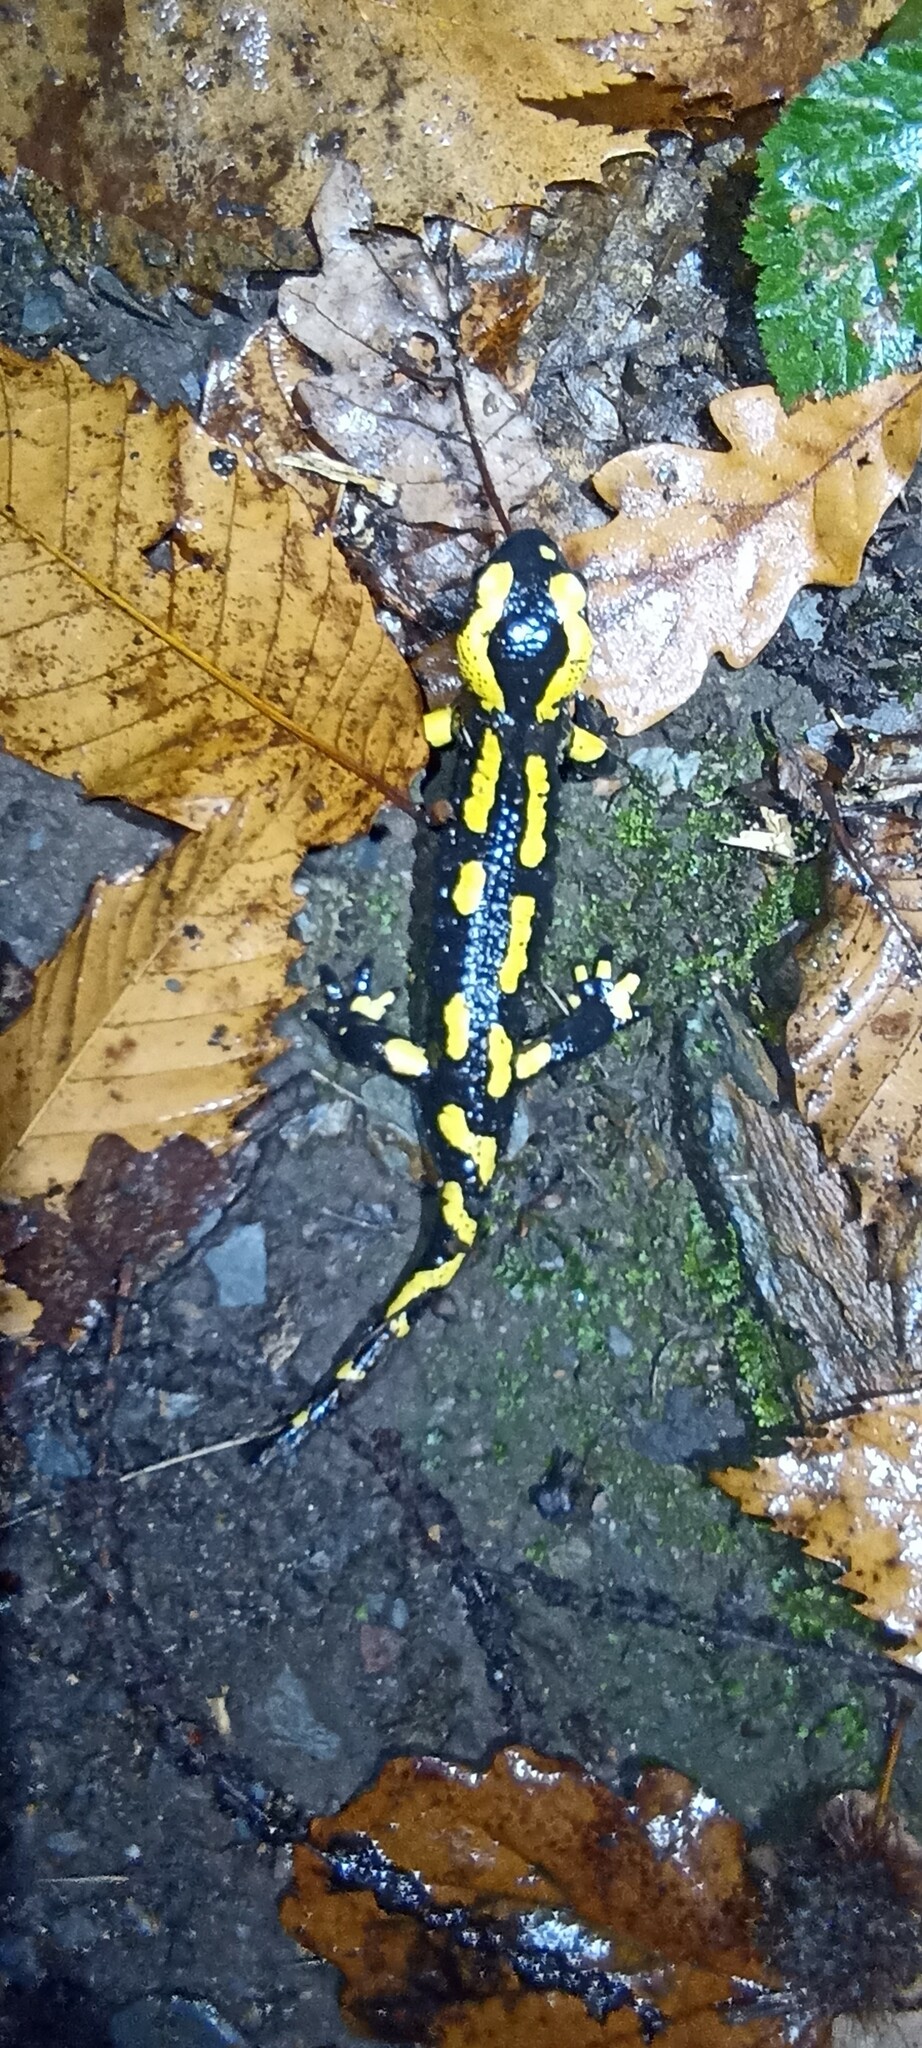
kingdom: Animalia
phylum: Chordata
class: Amphibia
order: Caudata
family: Salamandridae
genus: Salamandra
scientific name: Salamandra salamandra
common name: Fire salamander
